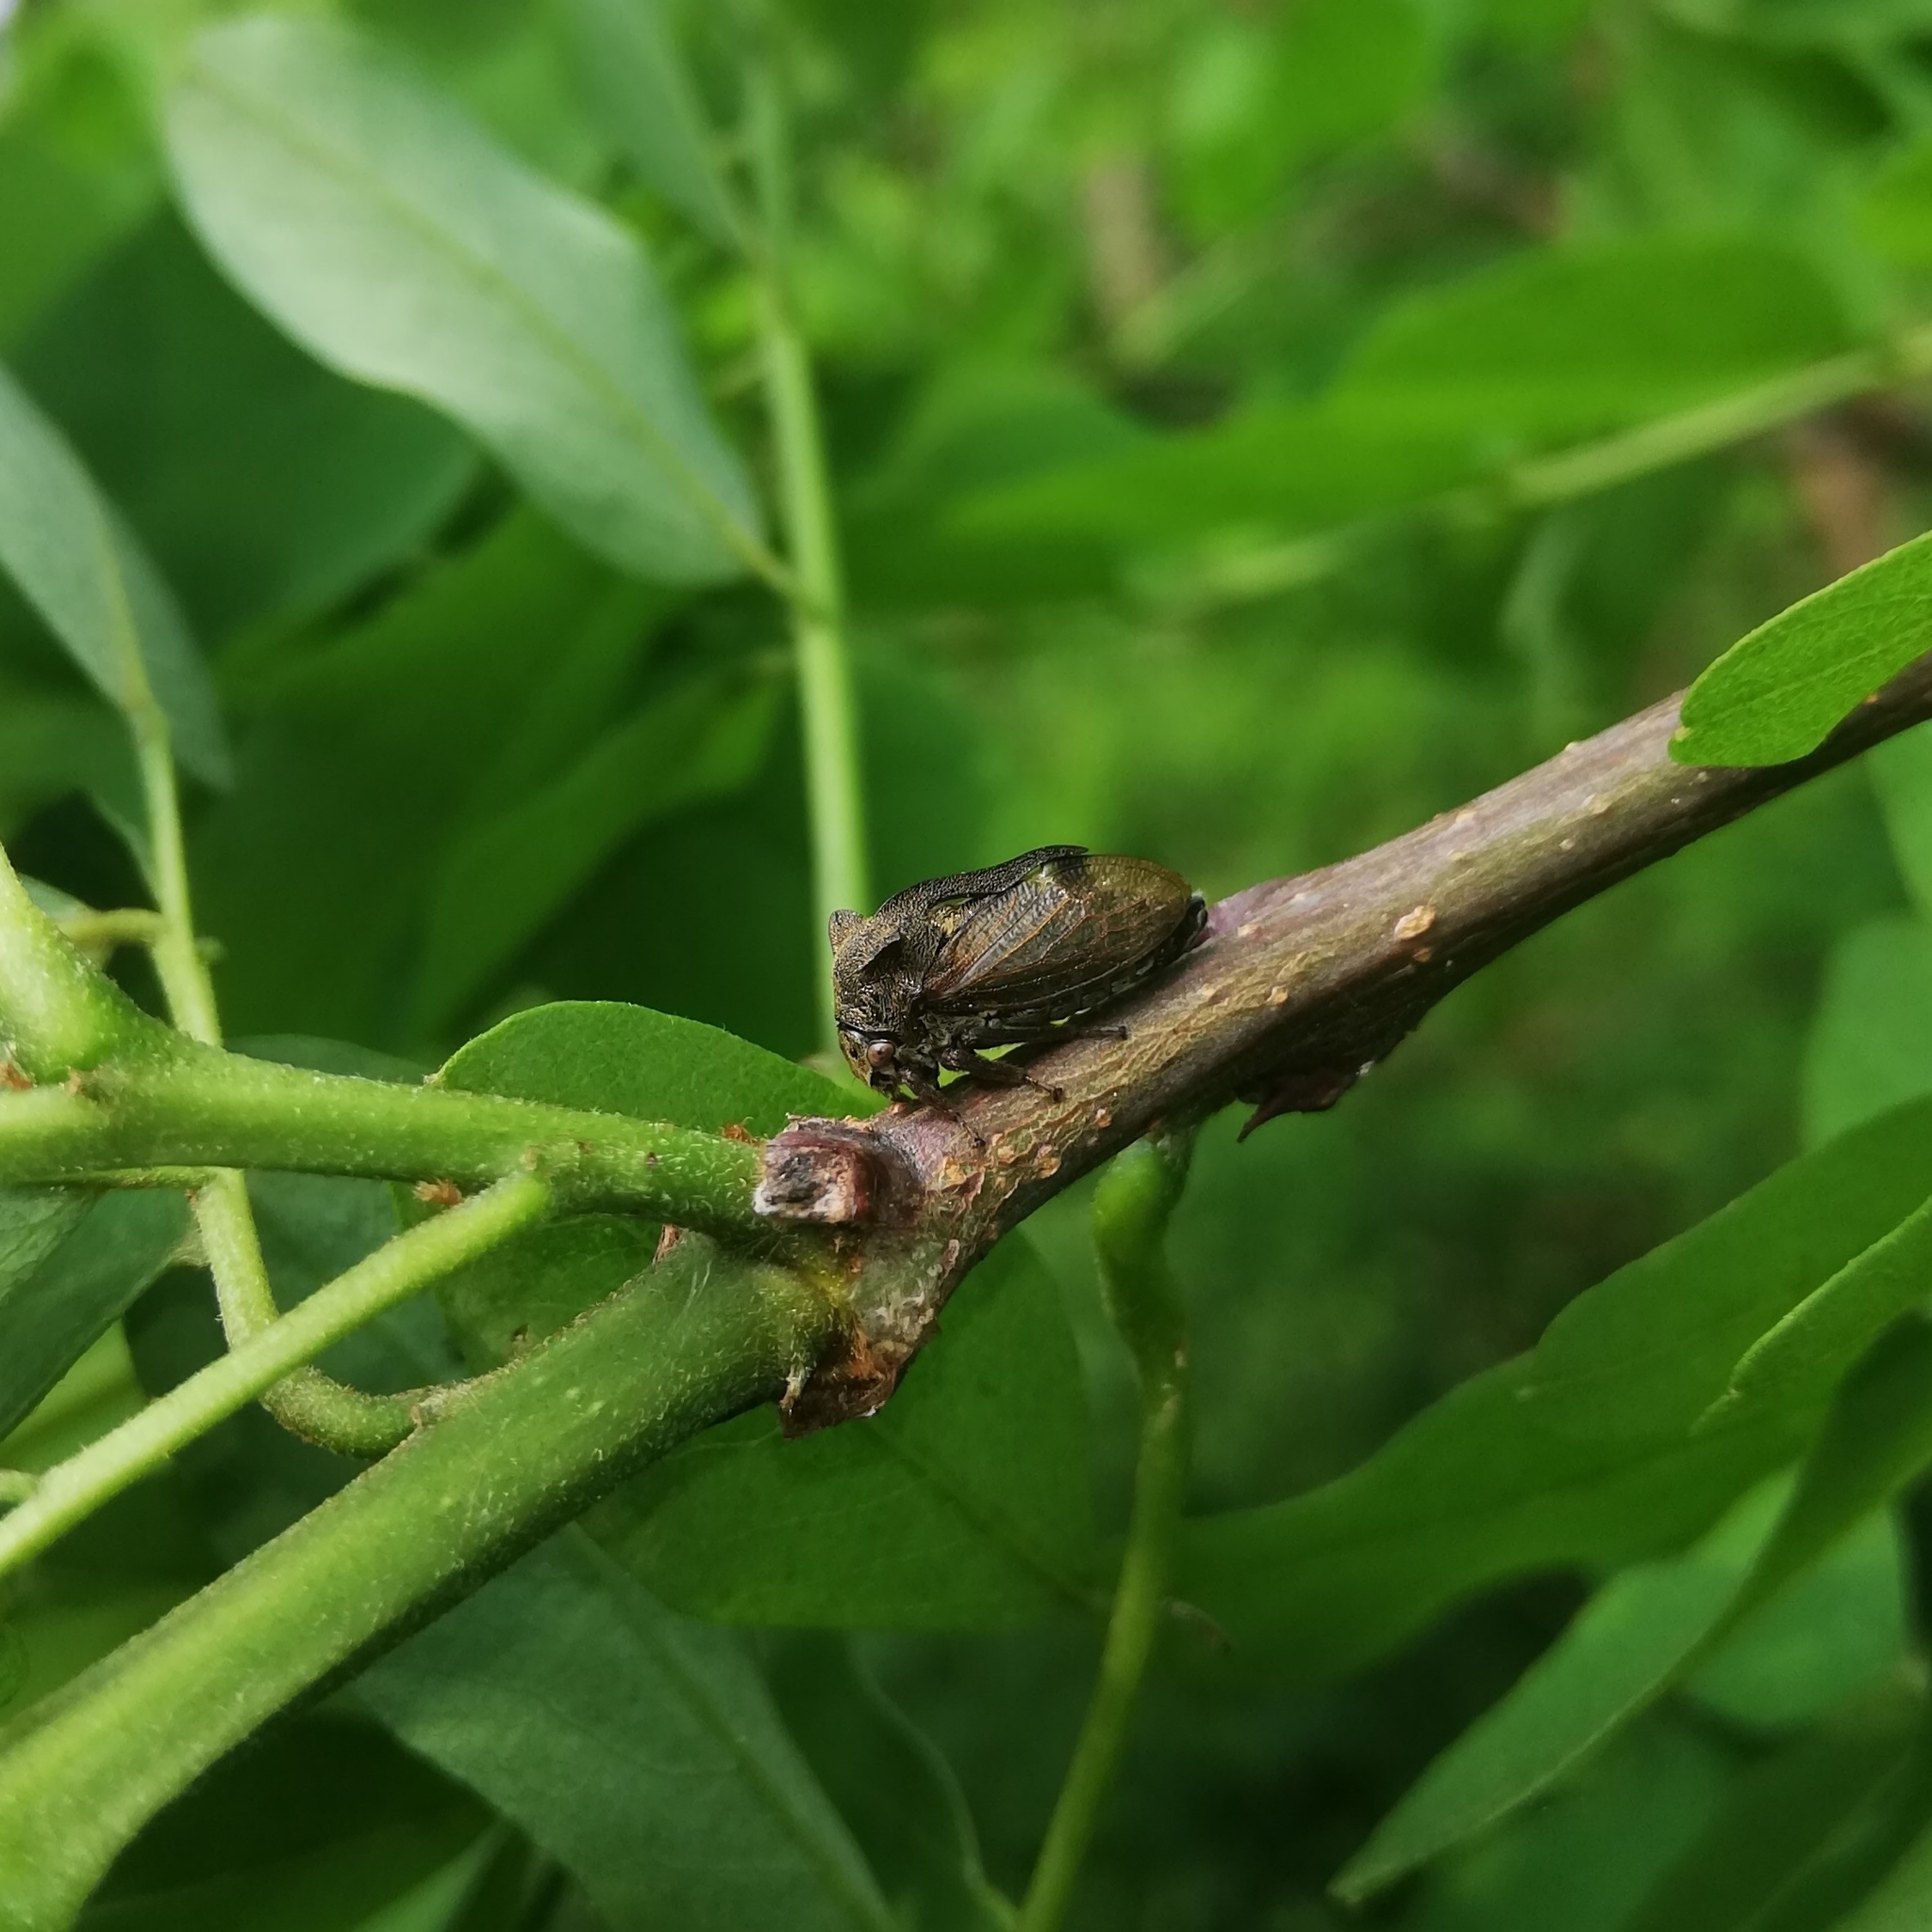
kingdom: Animalia
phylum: Arthropoda
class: Insecta
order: Hemiptera
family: Membracidae
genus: Centrotus
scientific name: Centrotus cornuta
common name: Treehopper
